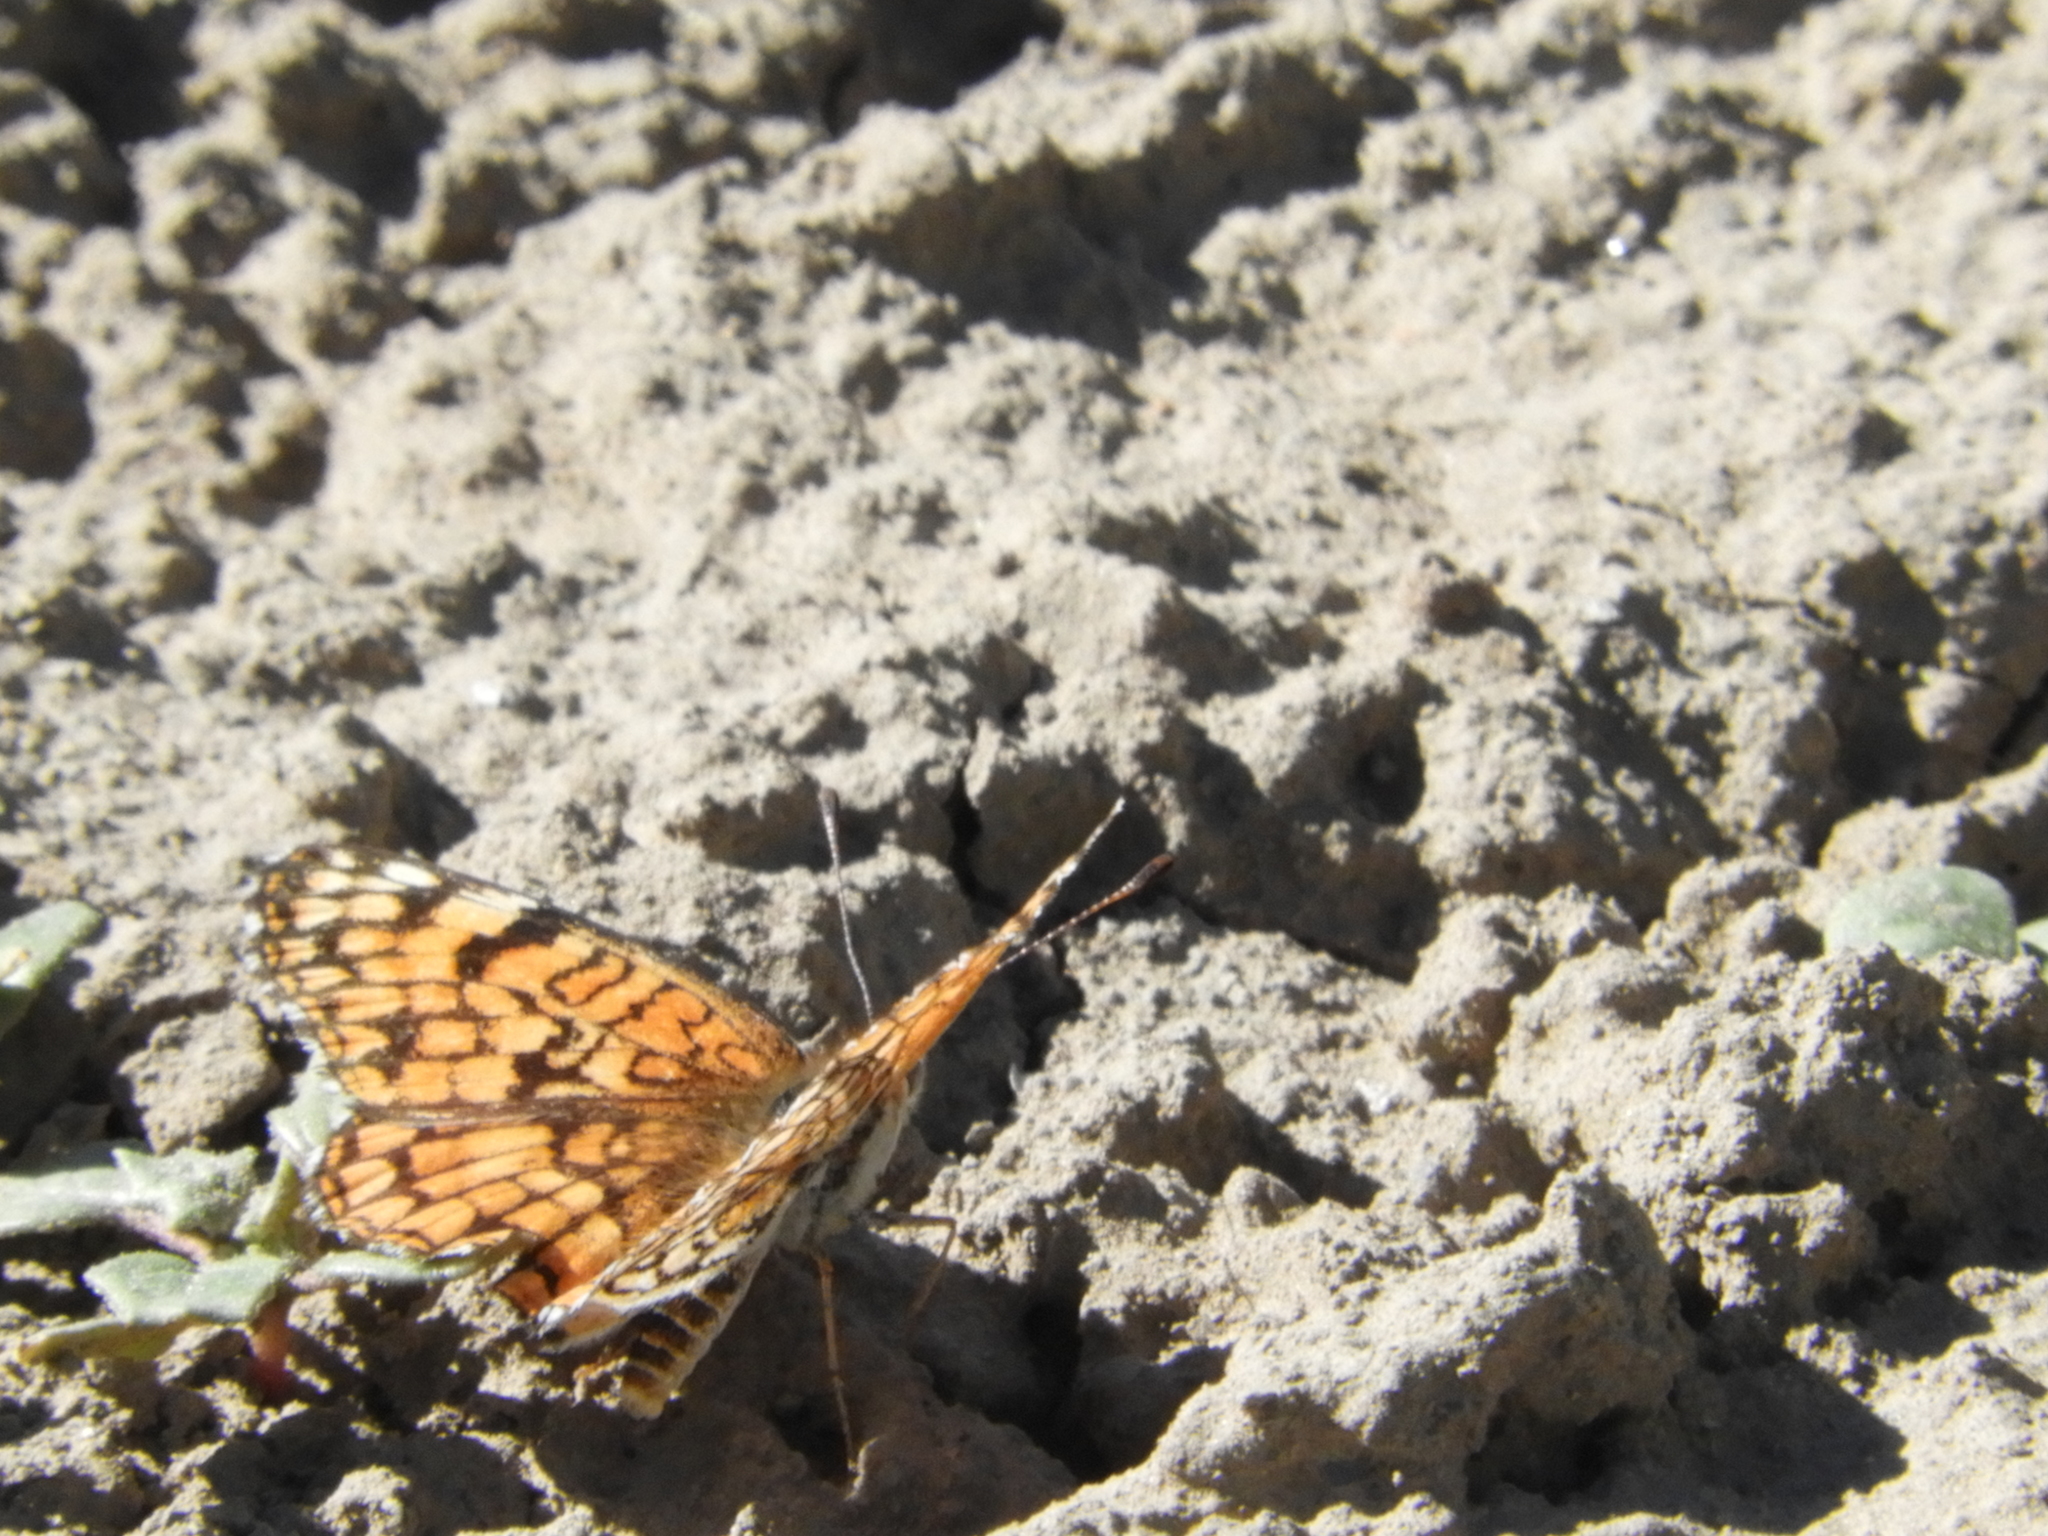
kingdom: Animalia
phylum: Arthropoda
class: Insecta
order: Lepidoptera
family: Nymphalidae
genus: Chlosyne
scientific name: Chlosyne acastus
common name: Sagebrush checkerspot
